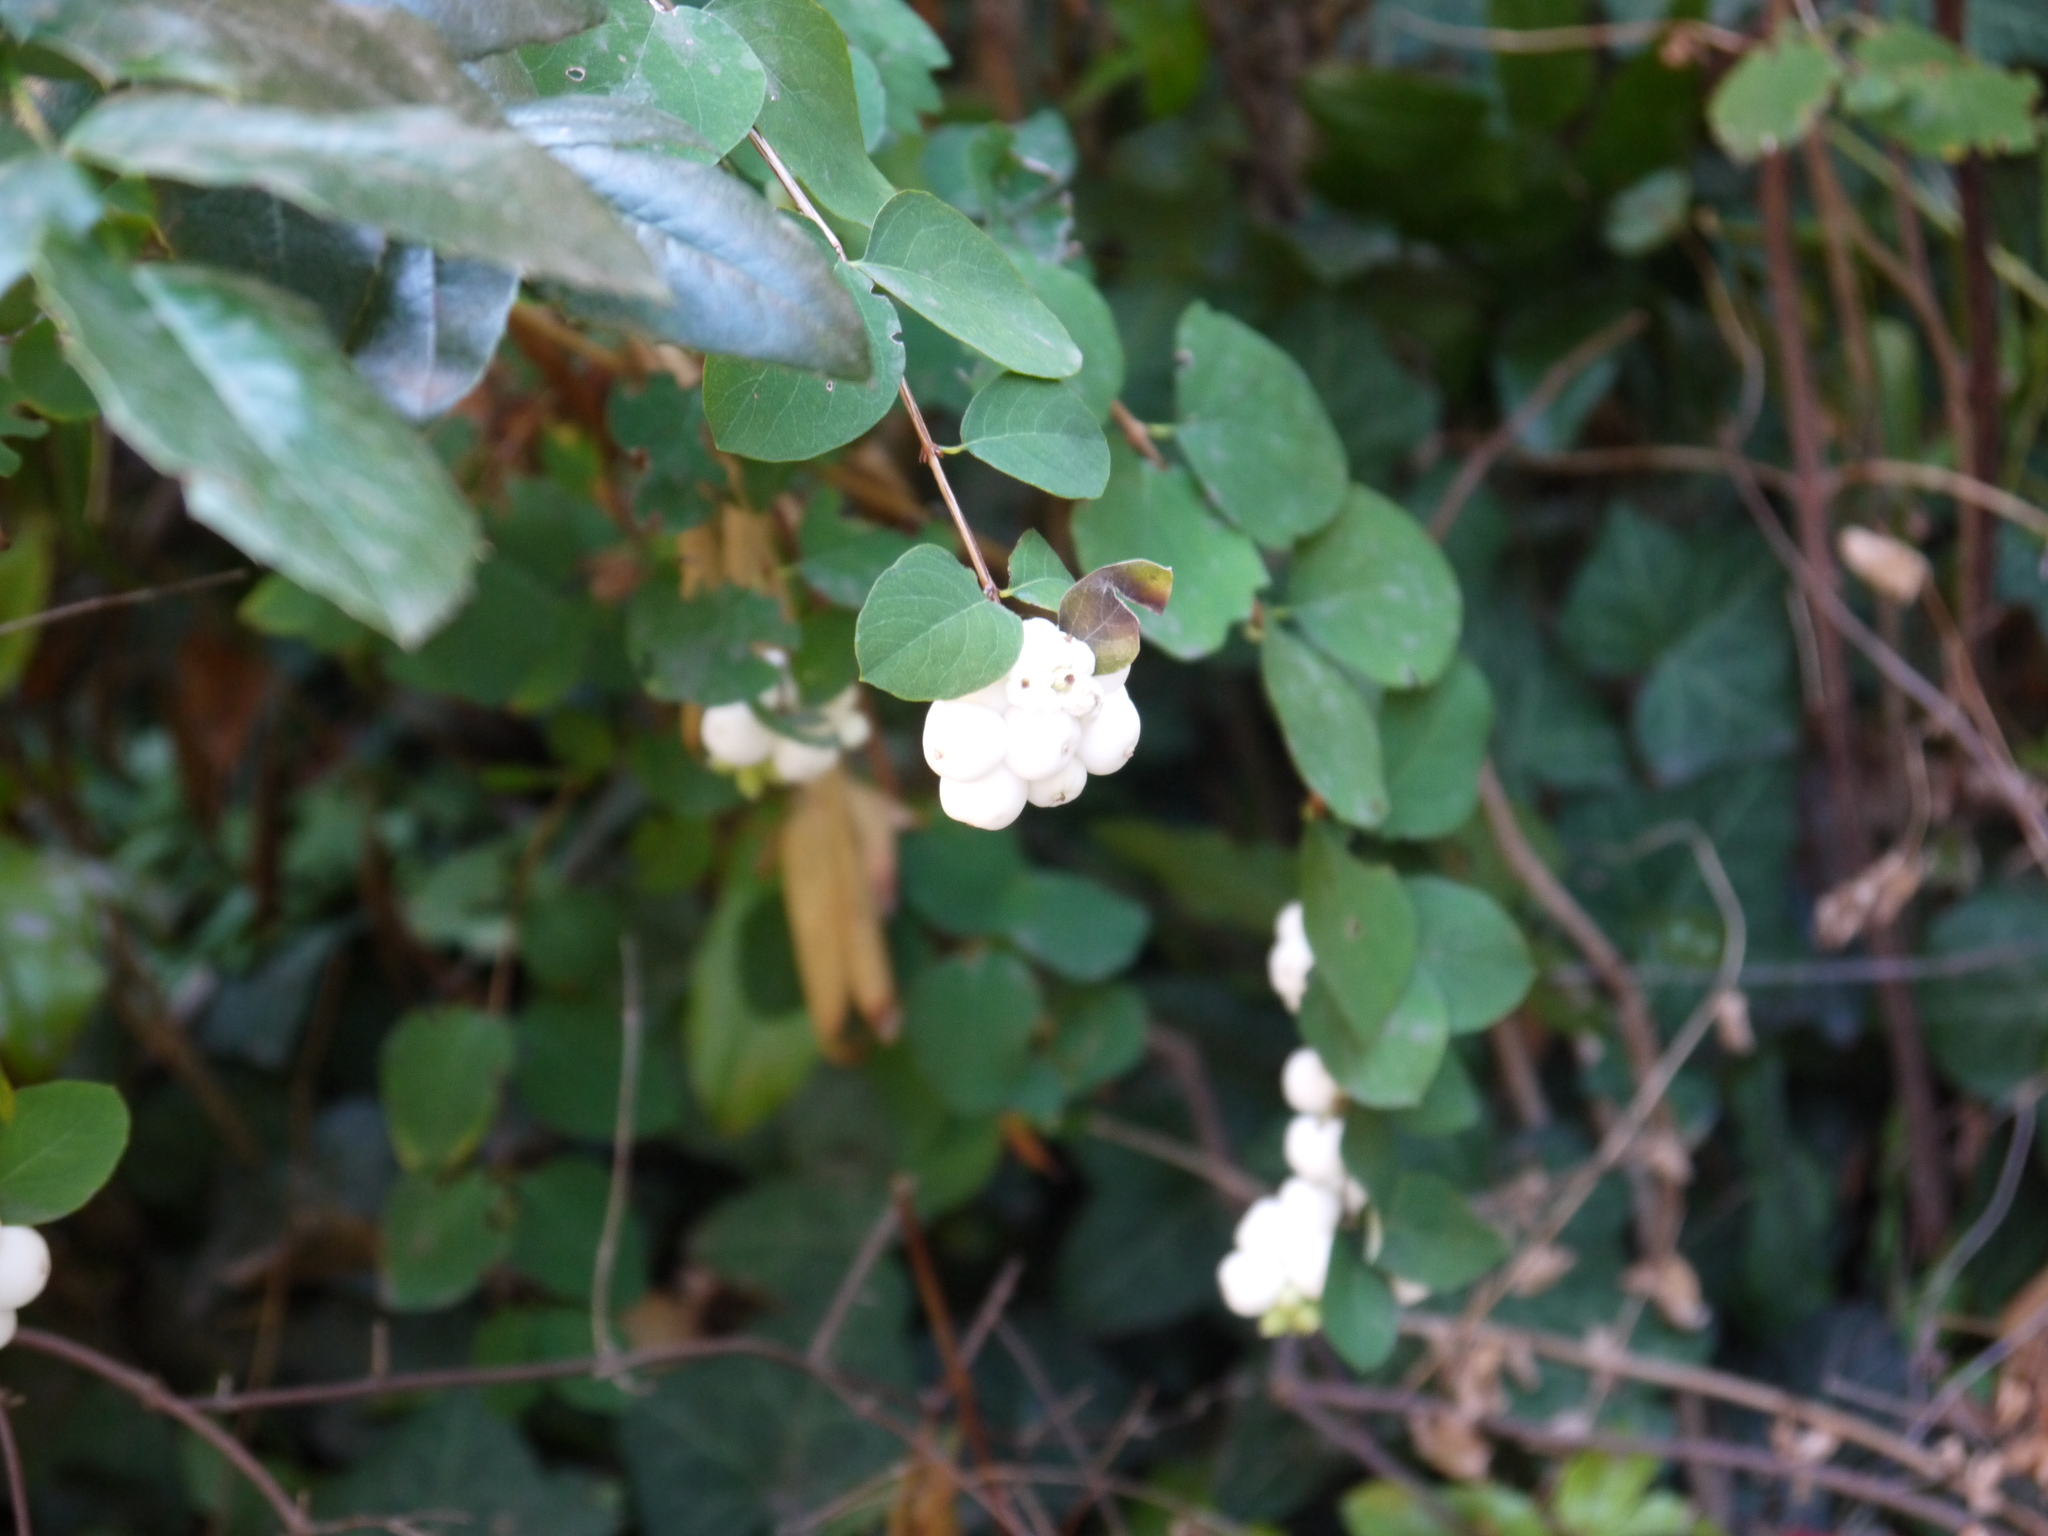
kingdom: Plantae
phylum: Tracheophyta
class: Magnoliopsida
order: Dipsacales
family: Caprifoliaceae
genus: Symphoricarpos
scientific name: Symphoricarpos albus
